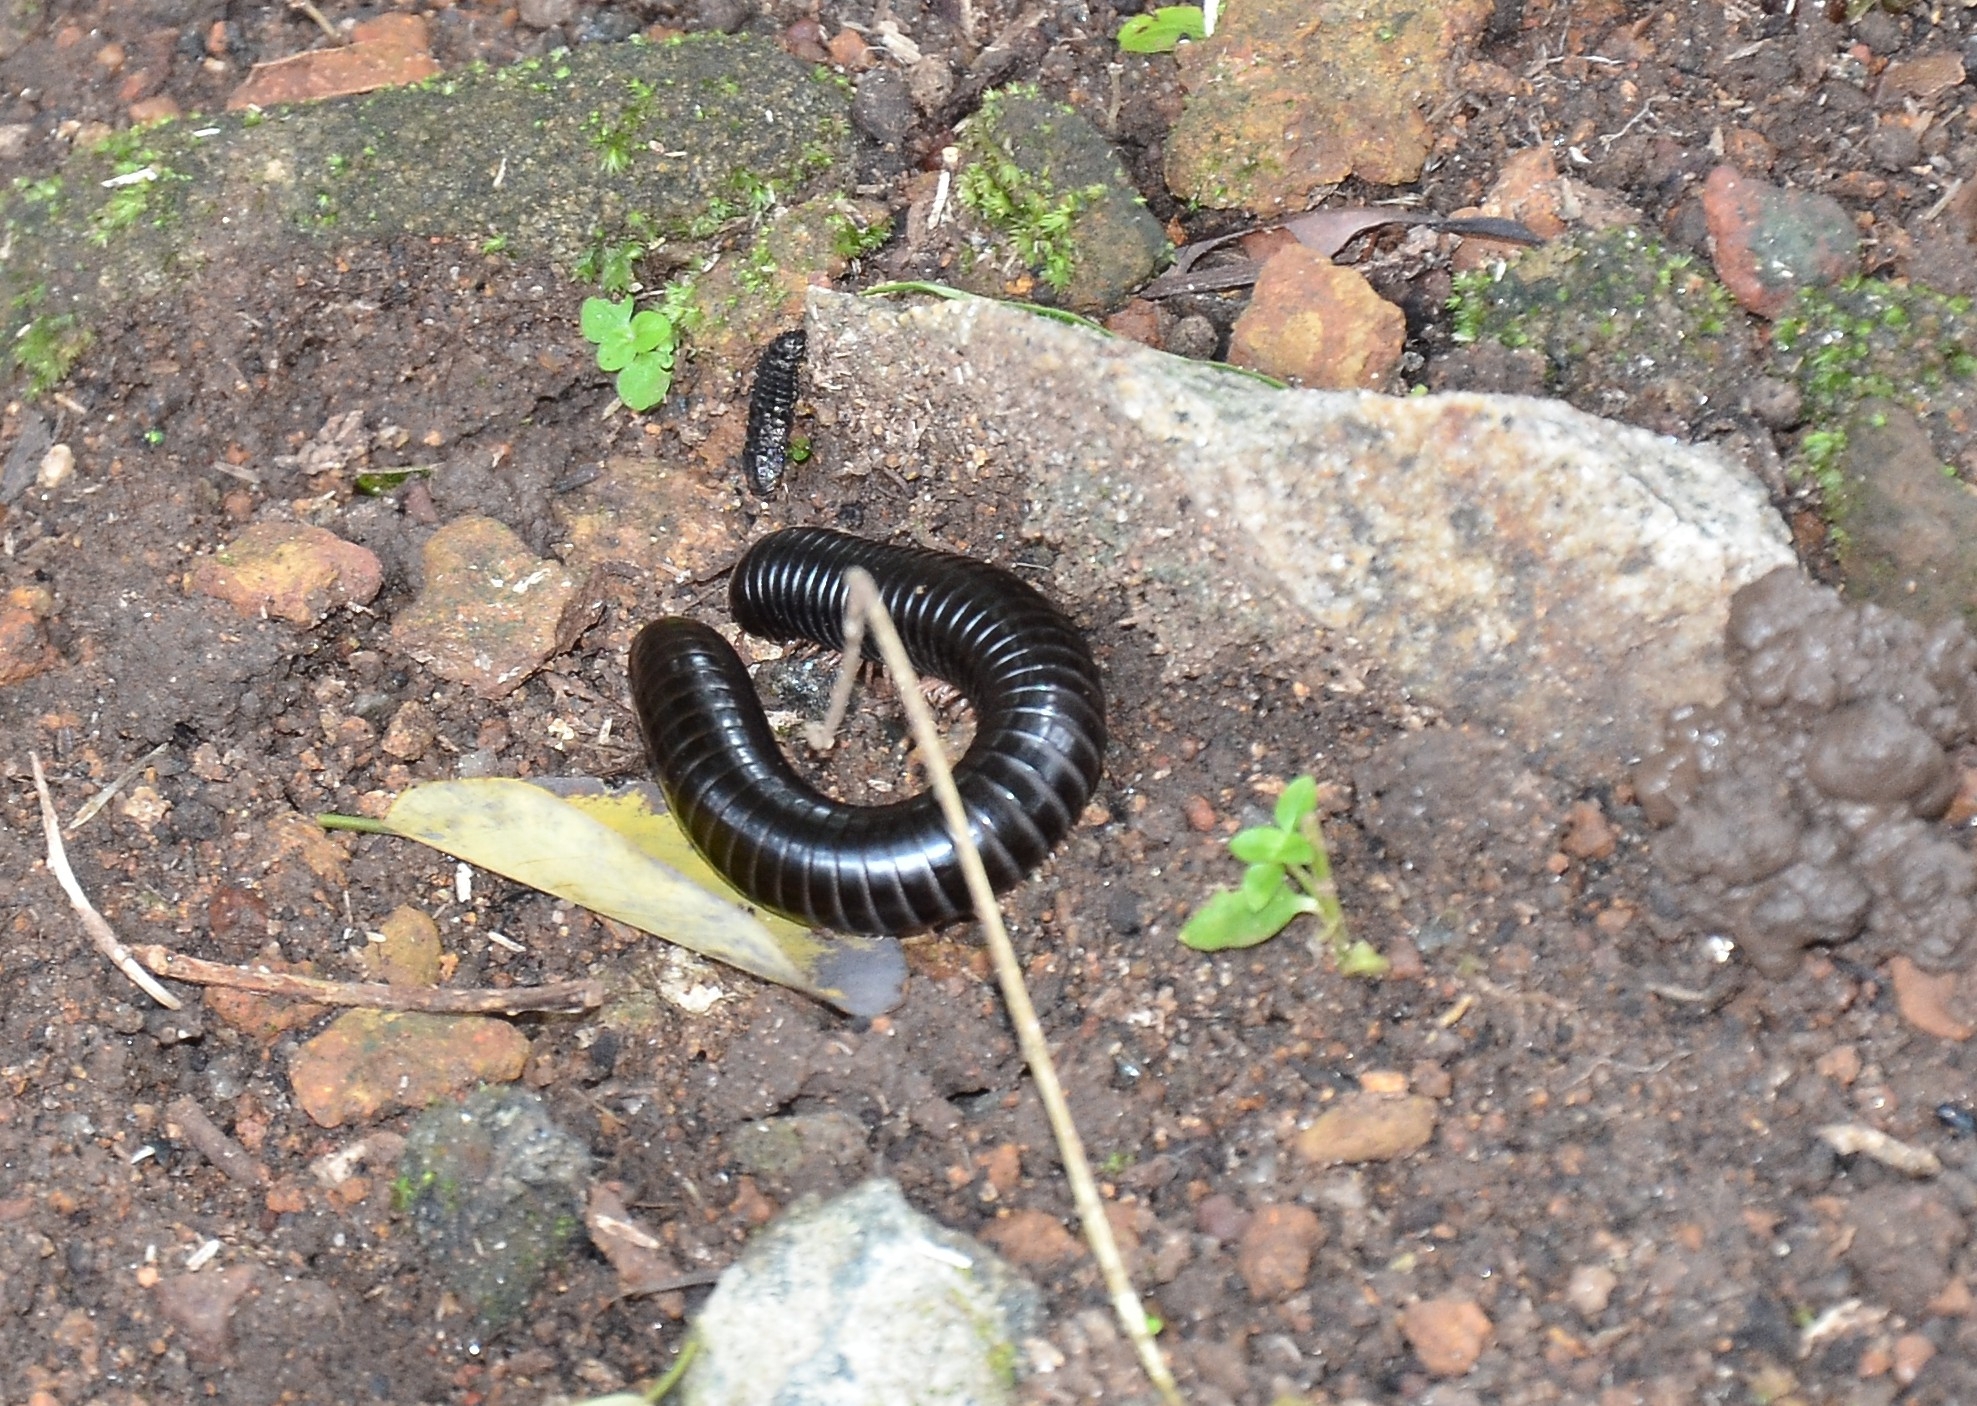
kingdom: Animalia
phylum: Arthropoda
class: Diplopoda
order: Spirostreptida
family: Harpagophoridae
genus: Phyllogonostreptus
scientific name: Phyllogonostreptus nigrolabiatus
